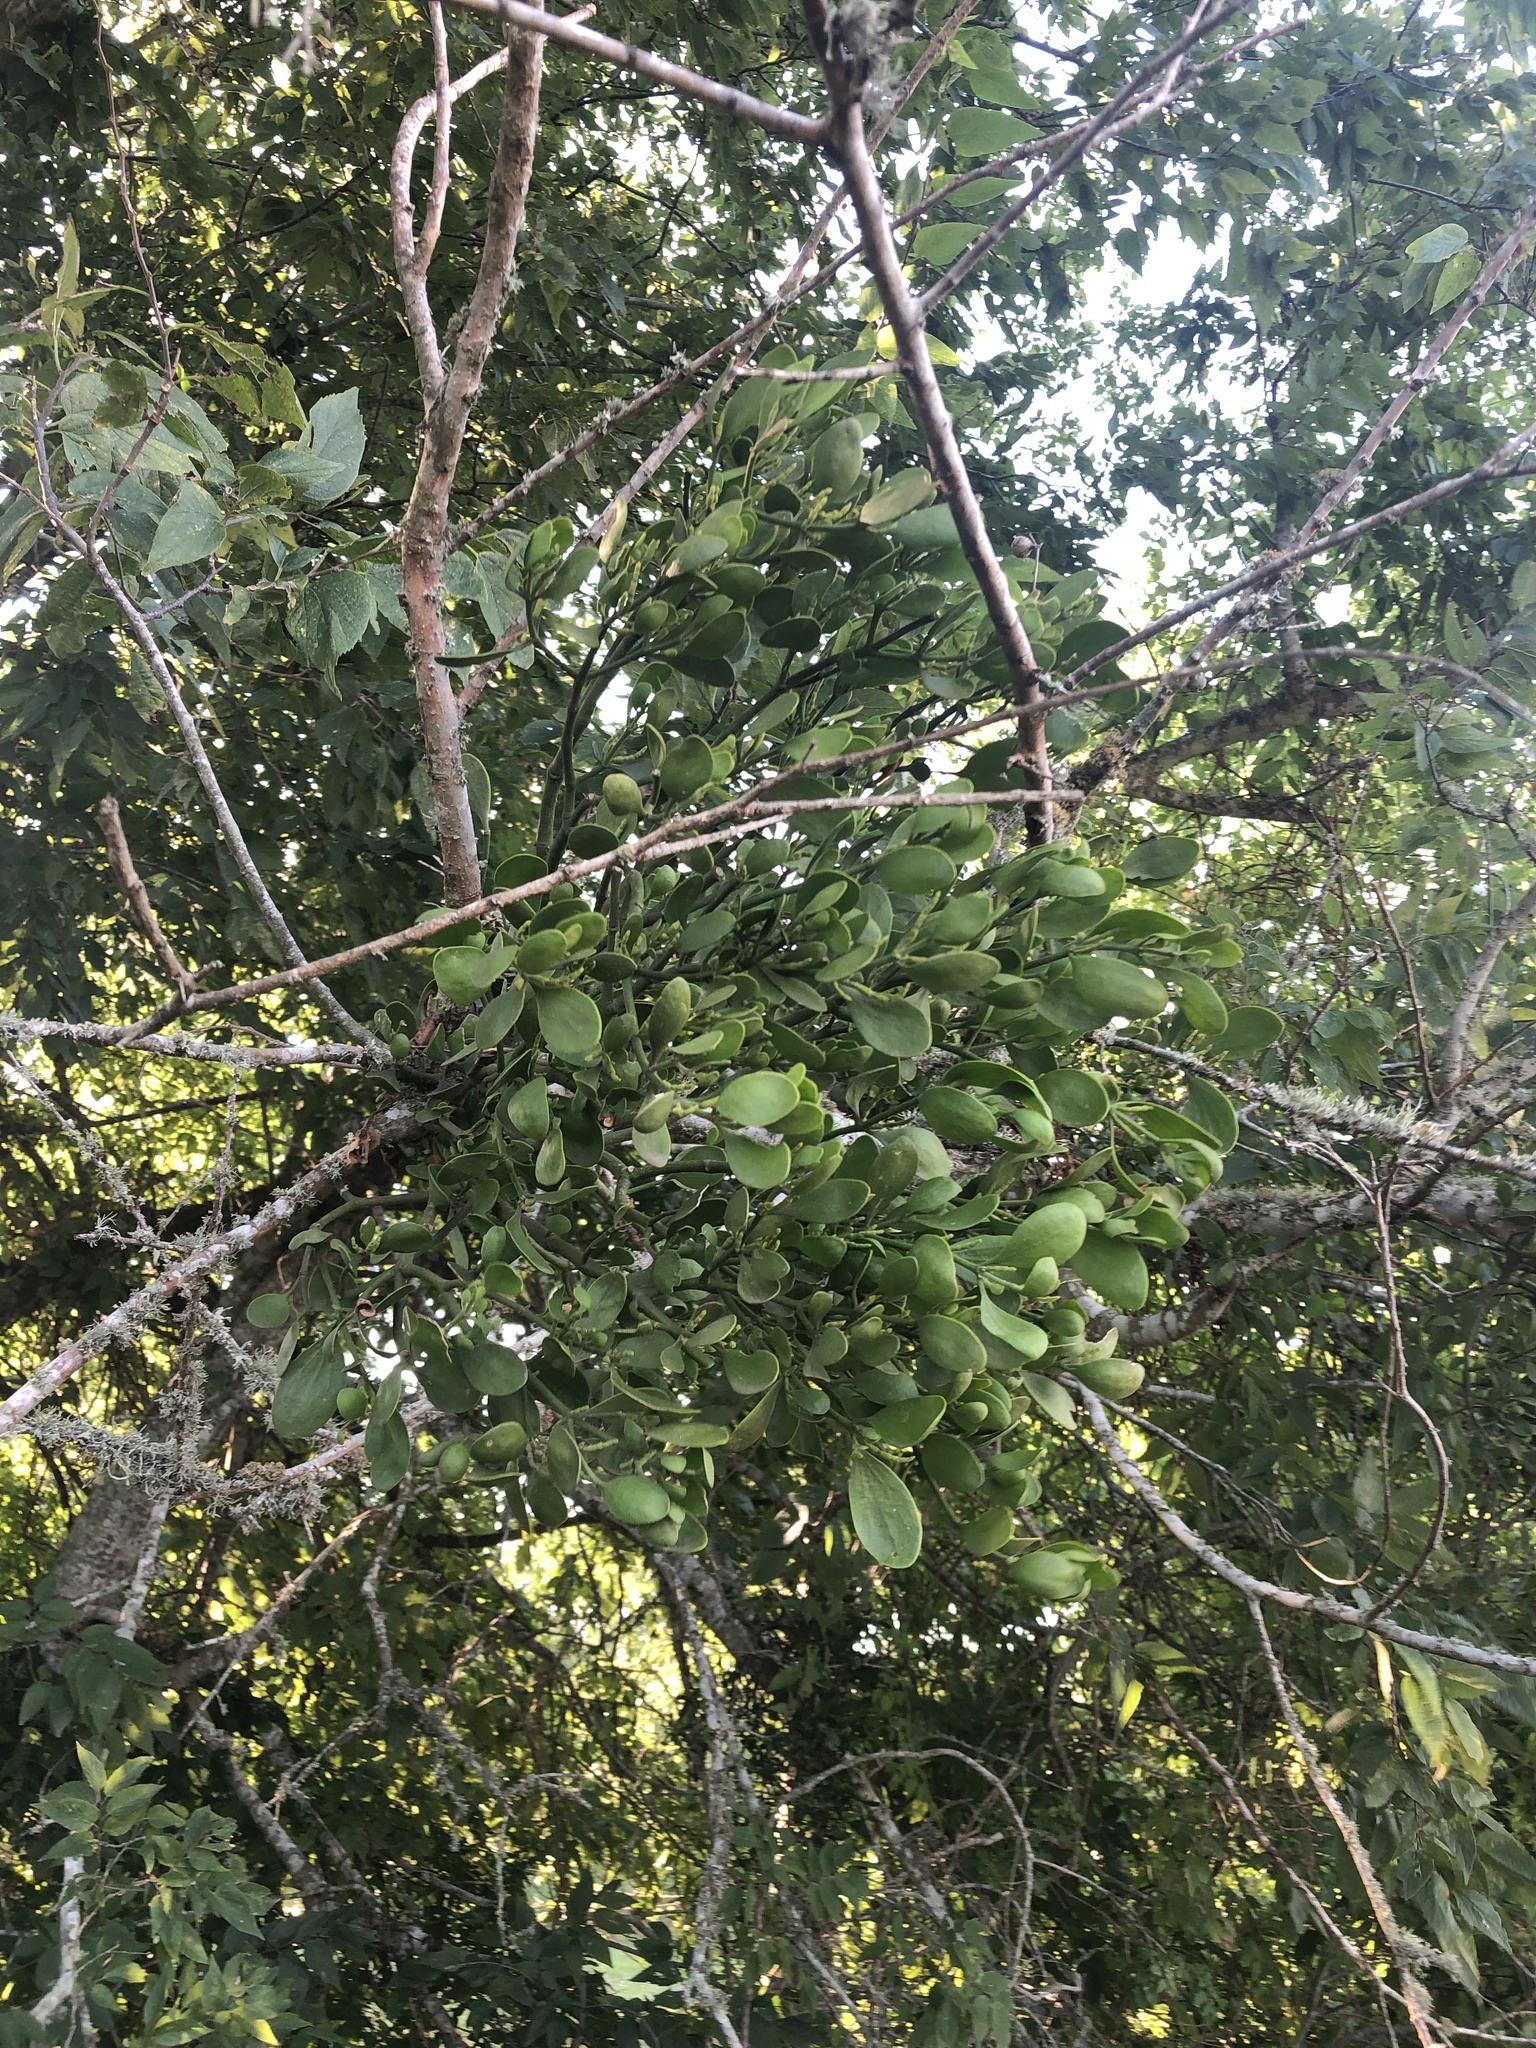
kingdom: Plantae
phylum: Tracheophyta
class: Magnoliopsida
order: Santalales
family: Viscaceae
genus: Phoradendron
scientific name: Phoradendron leucarpum
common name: Pacific mistletoe
